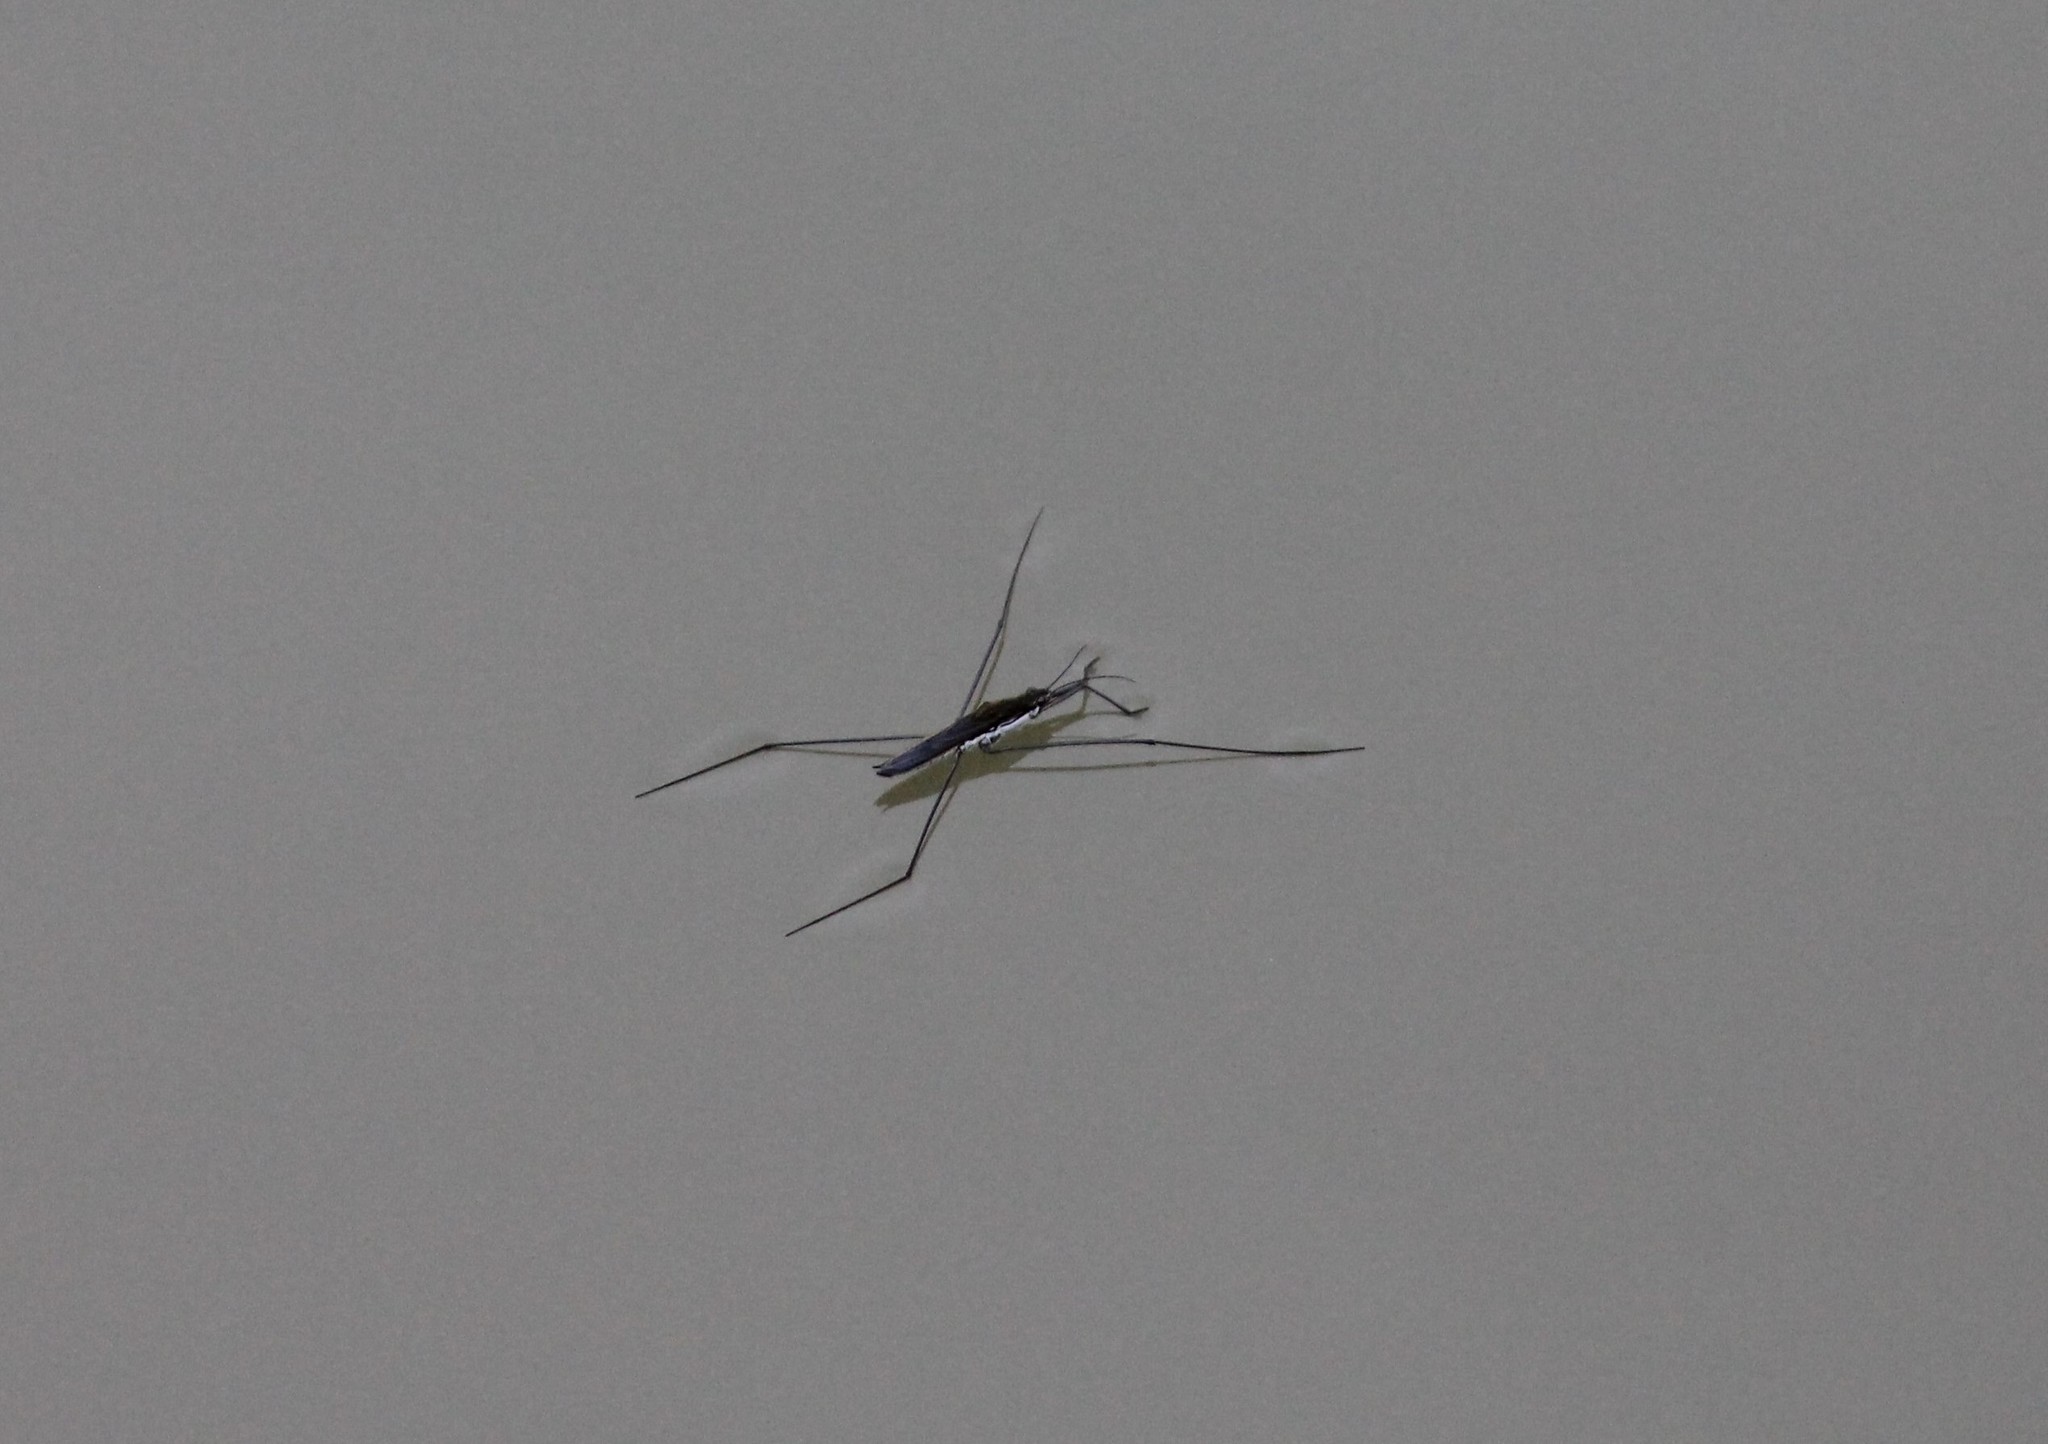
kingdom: Animalia
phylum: Arthropoda
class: Insecta
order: Hemiptera
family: Gerridae
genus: Aquarius
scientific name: Aquarius paludum
